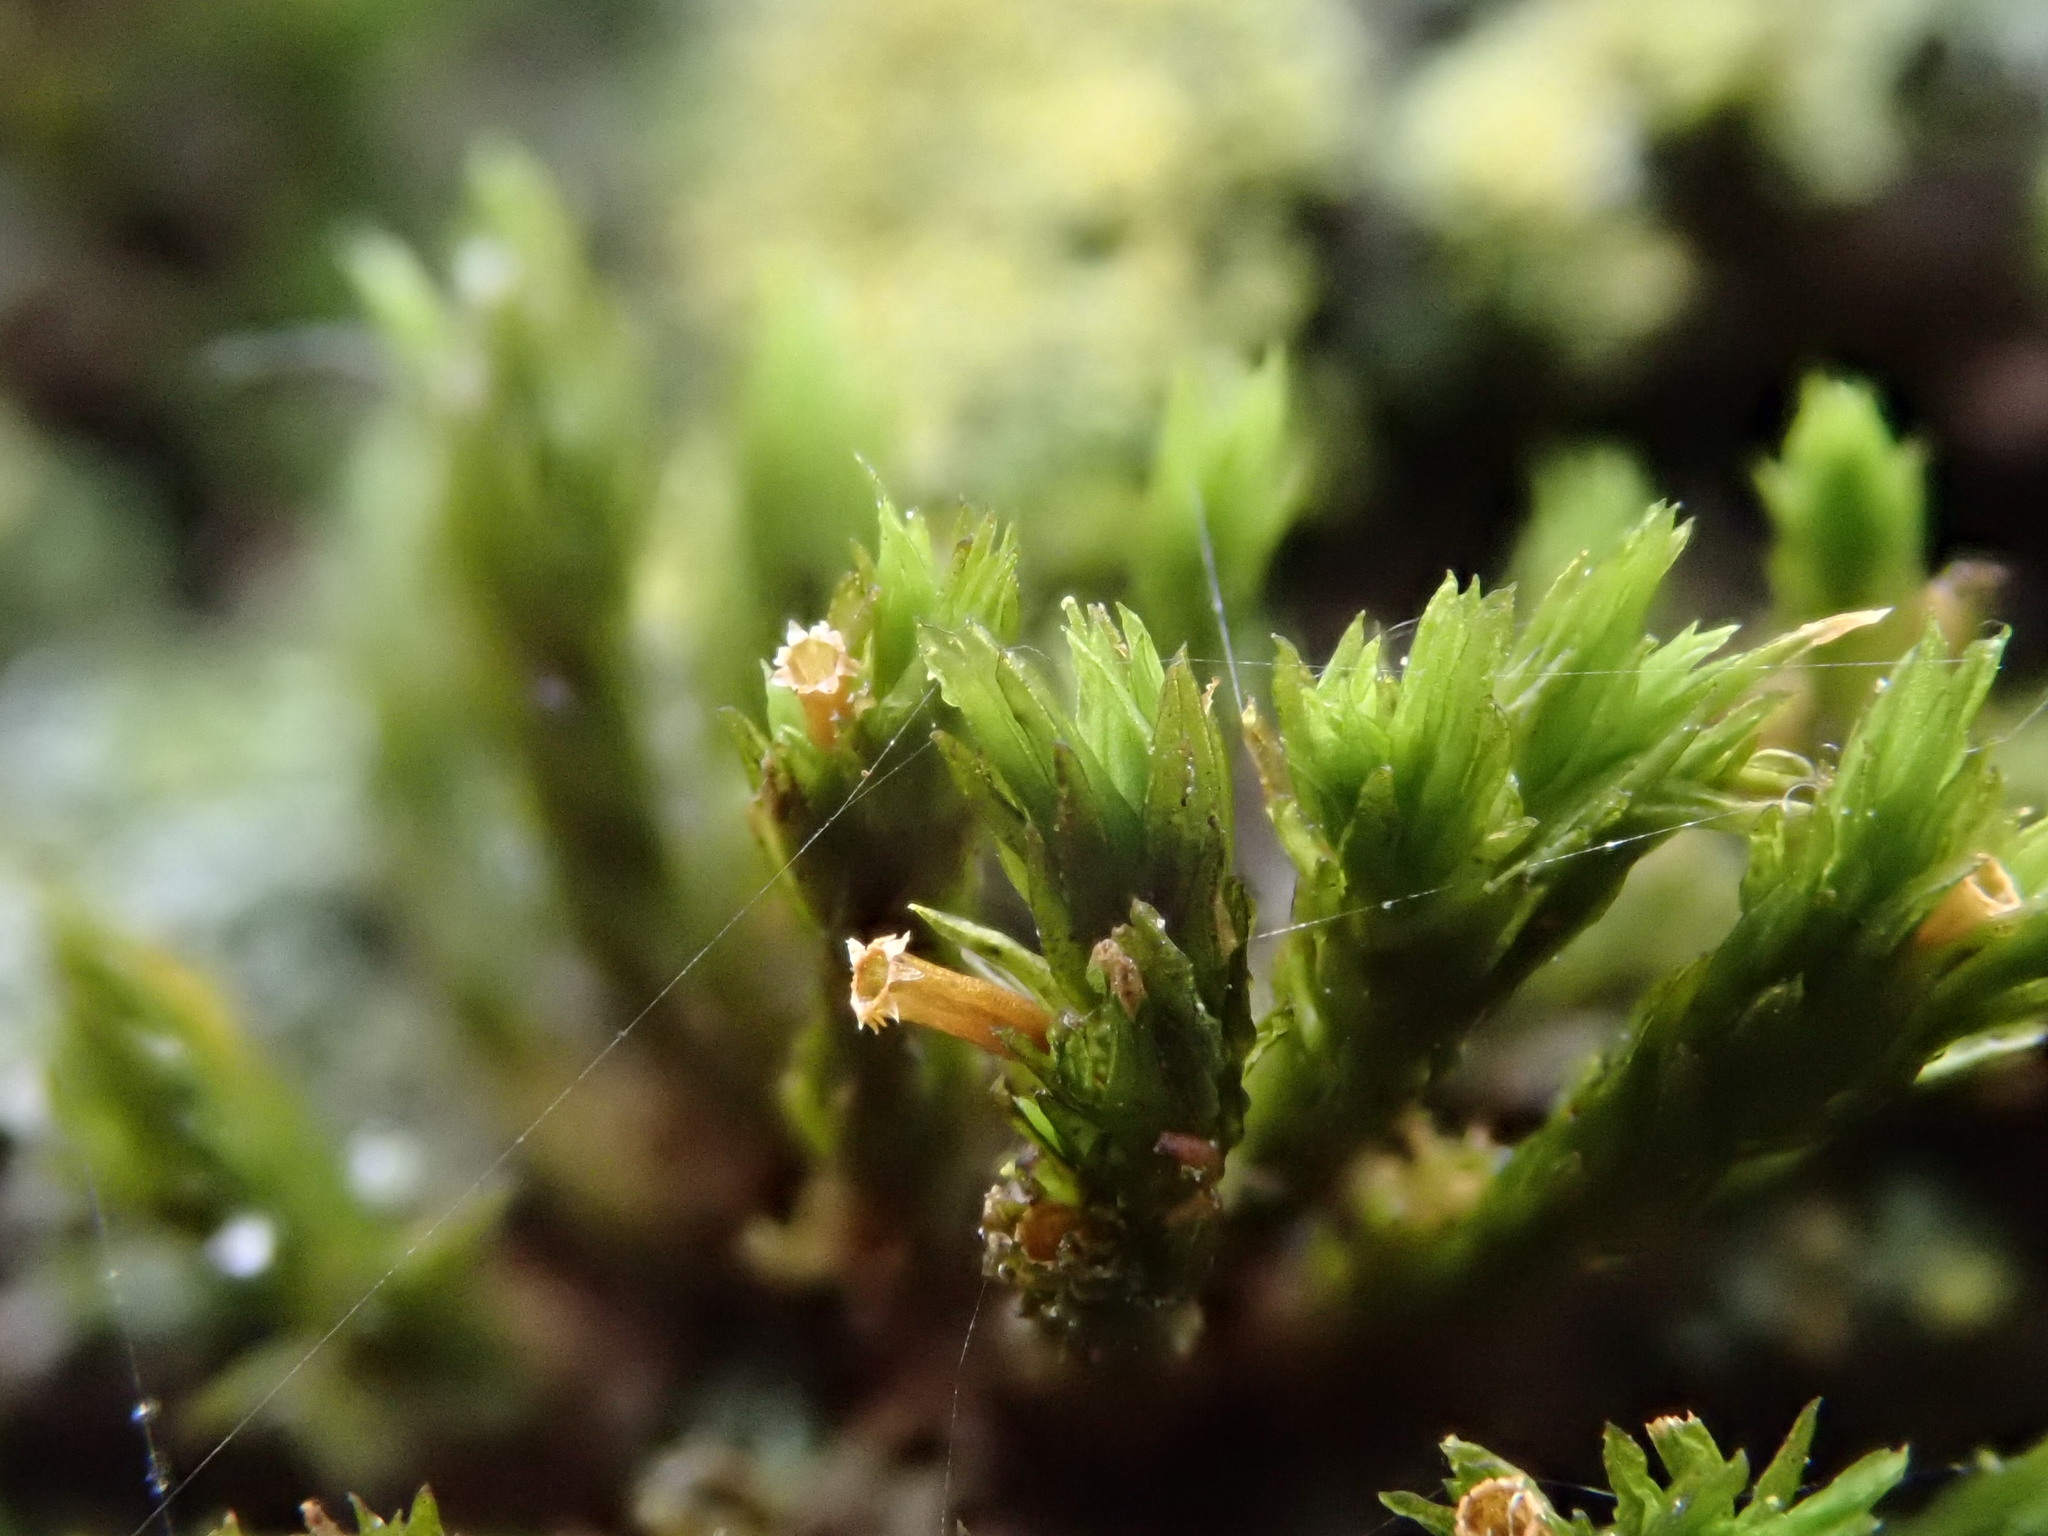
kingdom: Plantae
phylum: Bryophyta
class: Bryopsida
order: Orthotrichales
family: Orthotrichaceae
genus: Lewinskya
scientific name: Lewinskya affinis
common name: Wood bristle-moss
